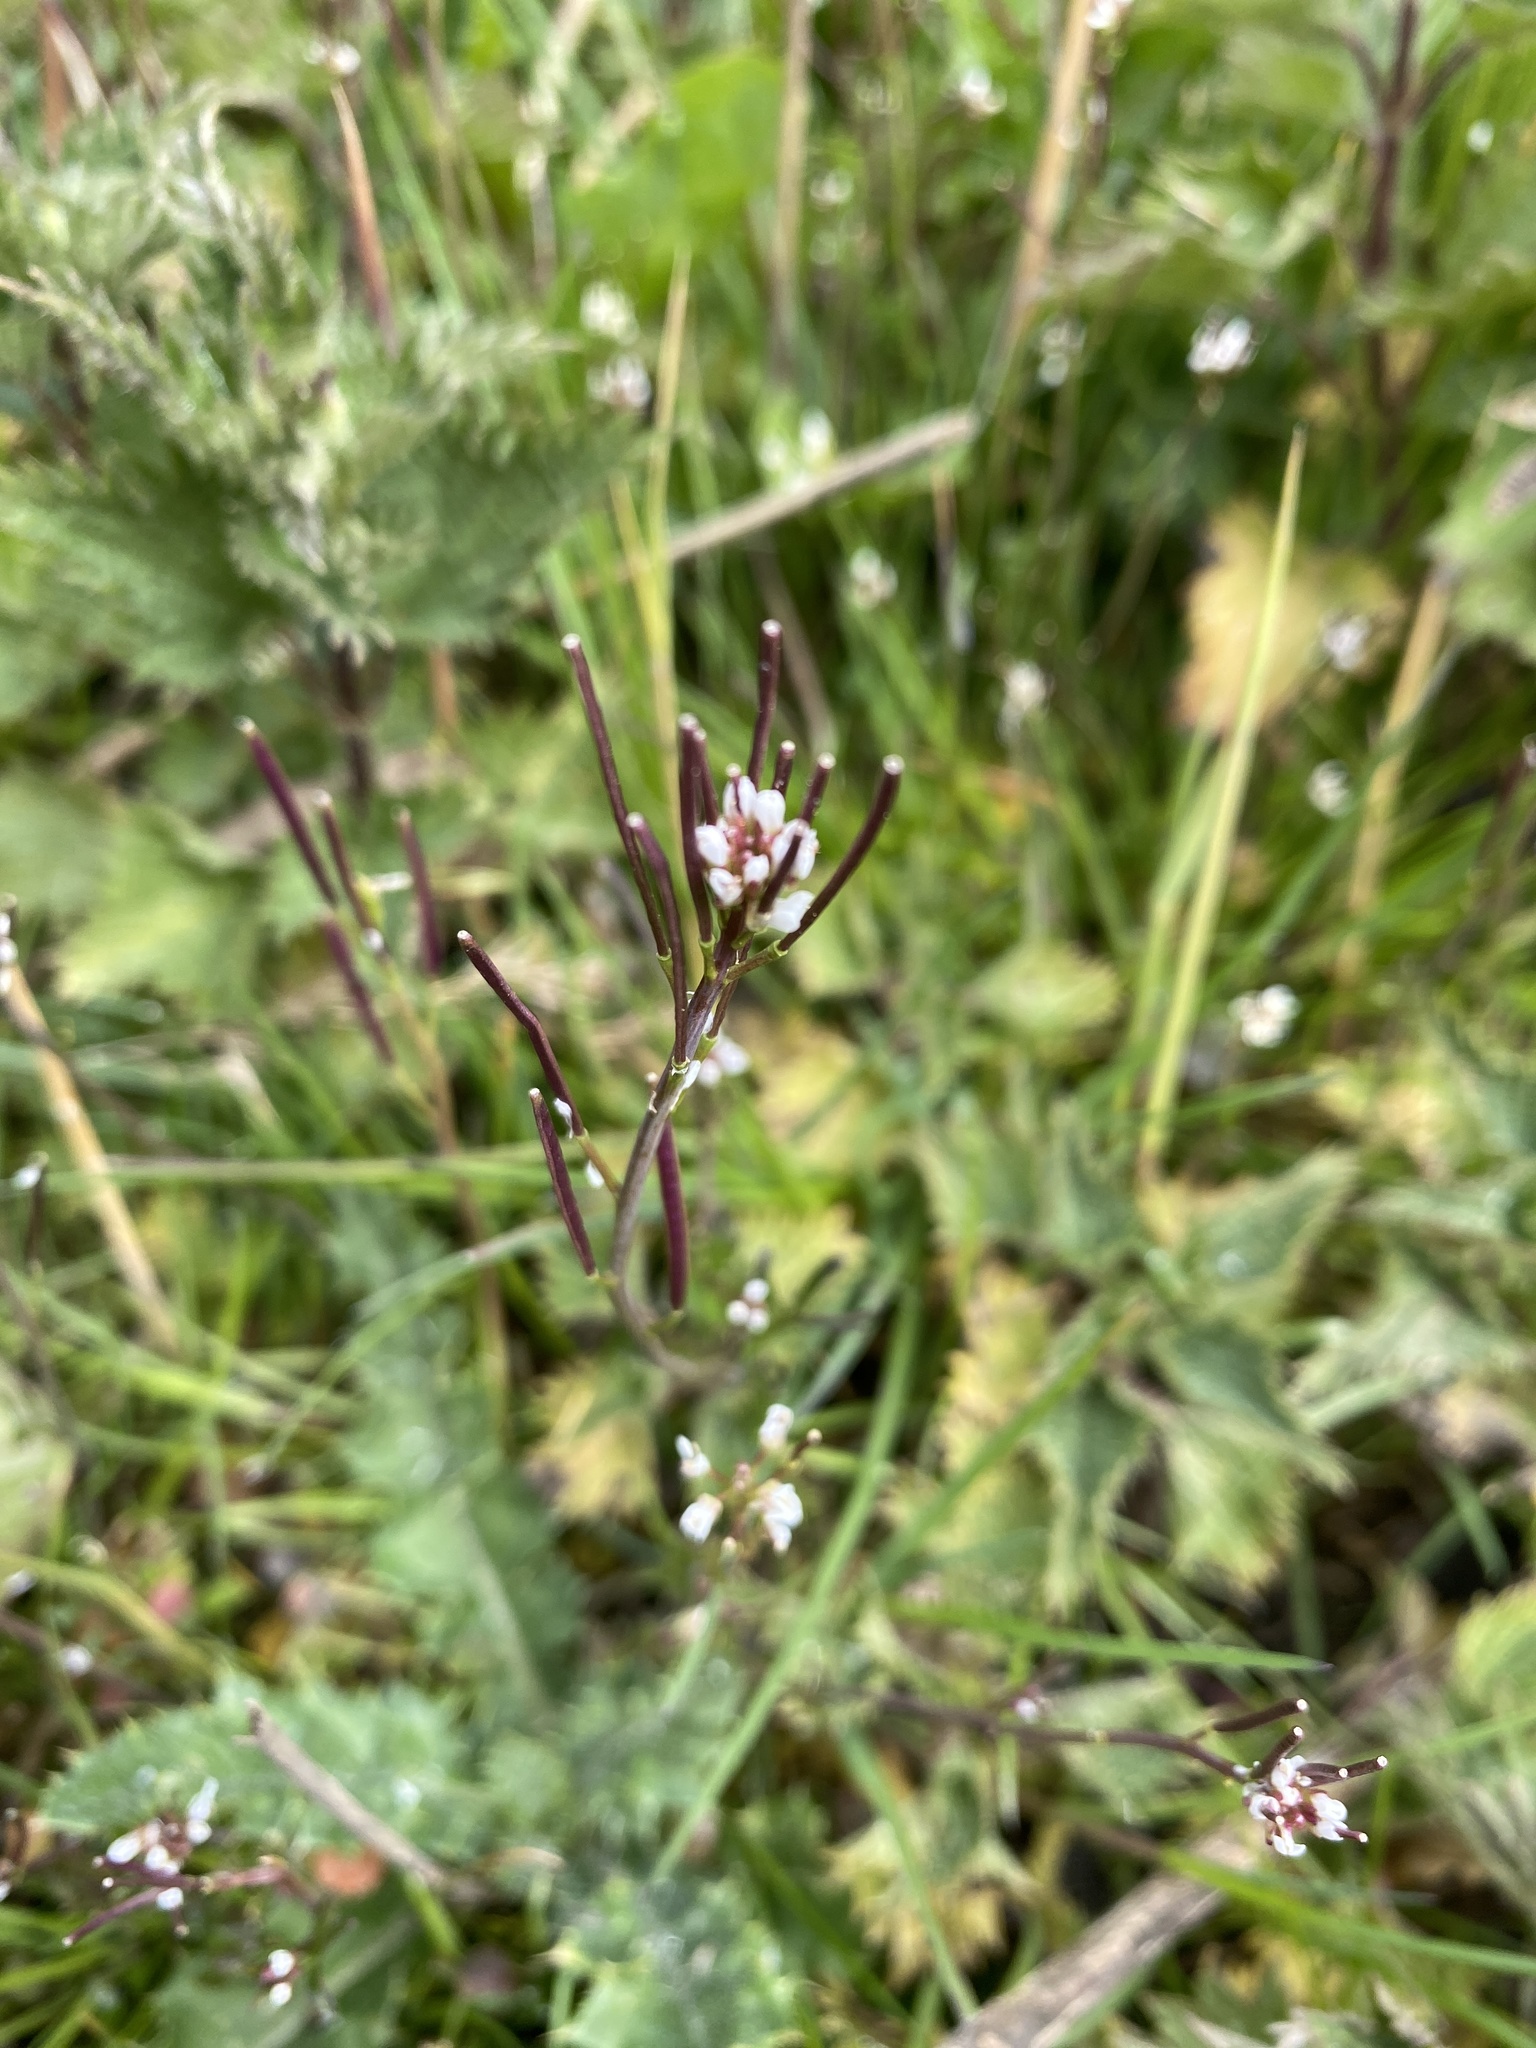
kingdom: Plantae
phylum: Tracheophyta
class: Magnoliopsida
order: Brassicales
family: Brassicaceae
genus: Cardamine
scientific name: Cardamine hirsuta
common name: Hairy bittercress
